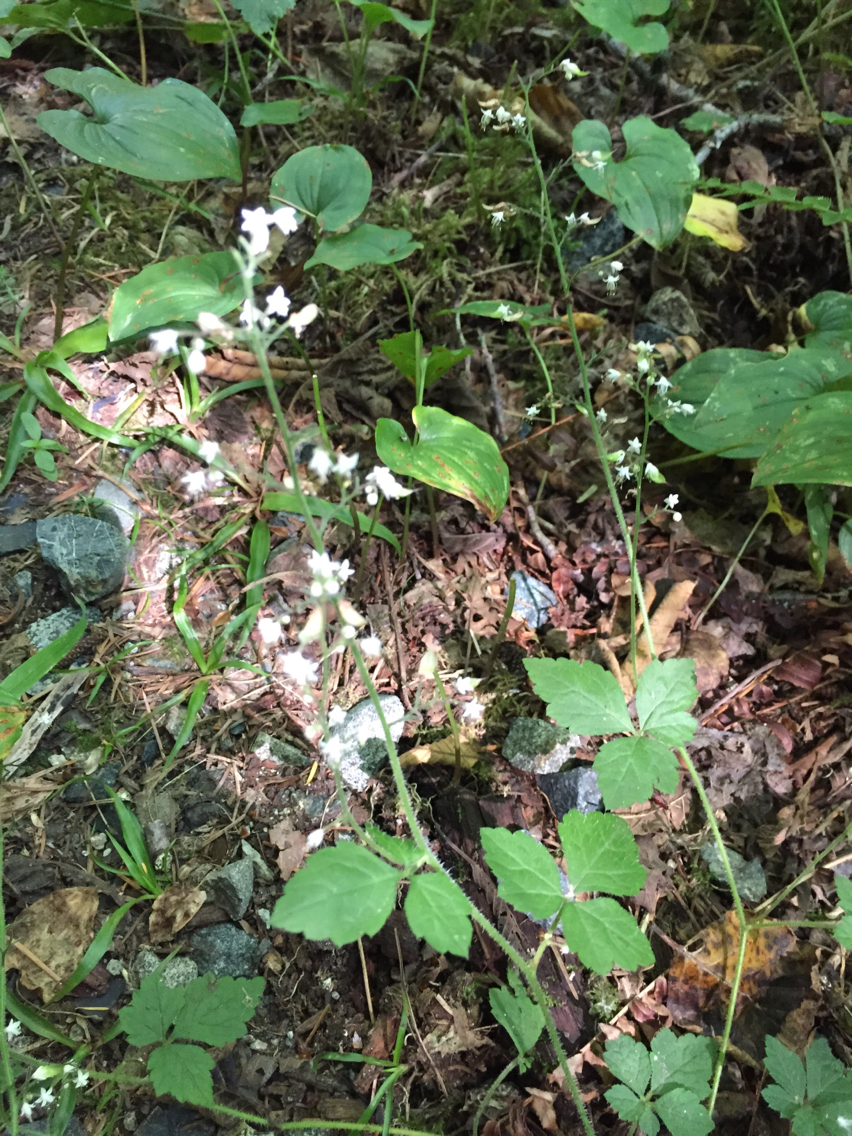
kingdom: Plantae
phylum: Tracheophyta
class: Magnoliopsida
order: Saxifragales
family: Saxifragaceae
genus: Tiarella
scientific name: Tiarella trifoliata
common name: Sugar-scoop
